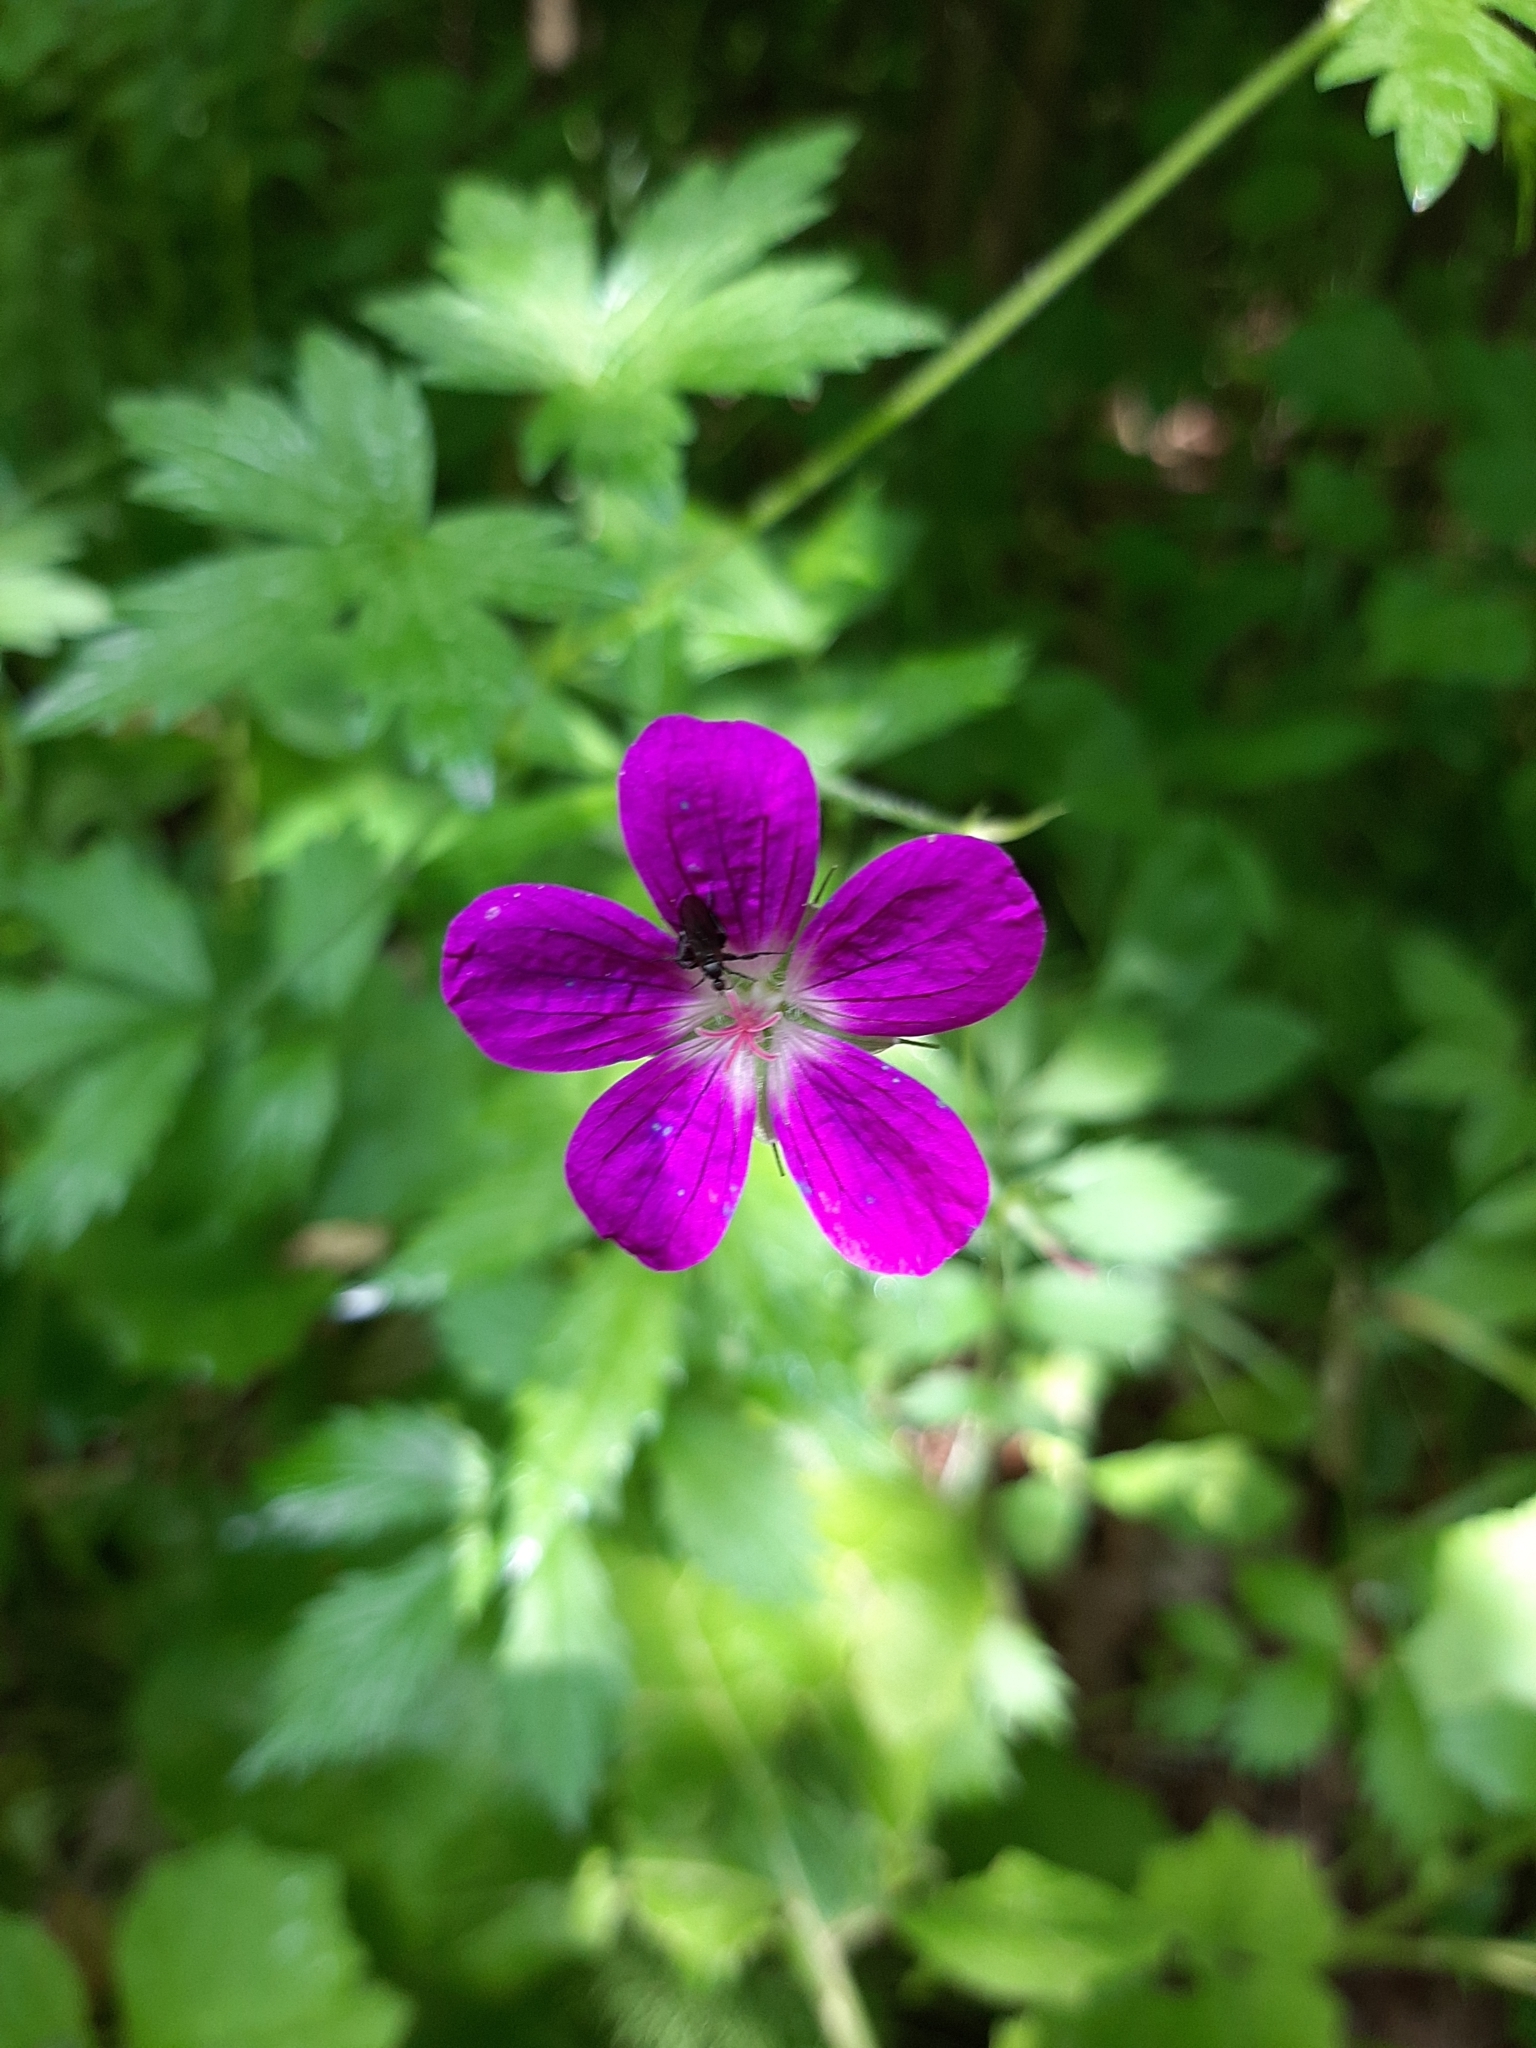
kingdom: Plantae
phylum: Tracheophyta
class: Magnoliopsida
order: Geraniales
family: Geraniaceae
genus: Geranium
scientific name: Geranium palustre
